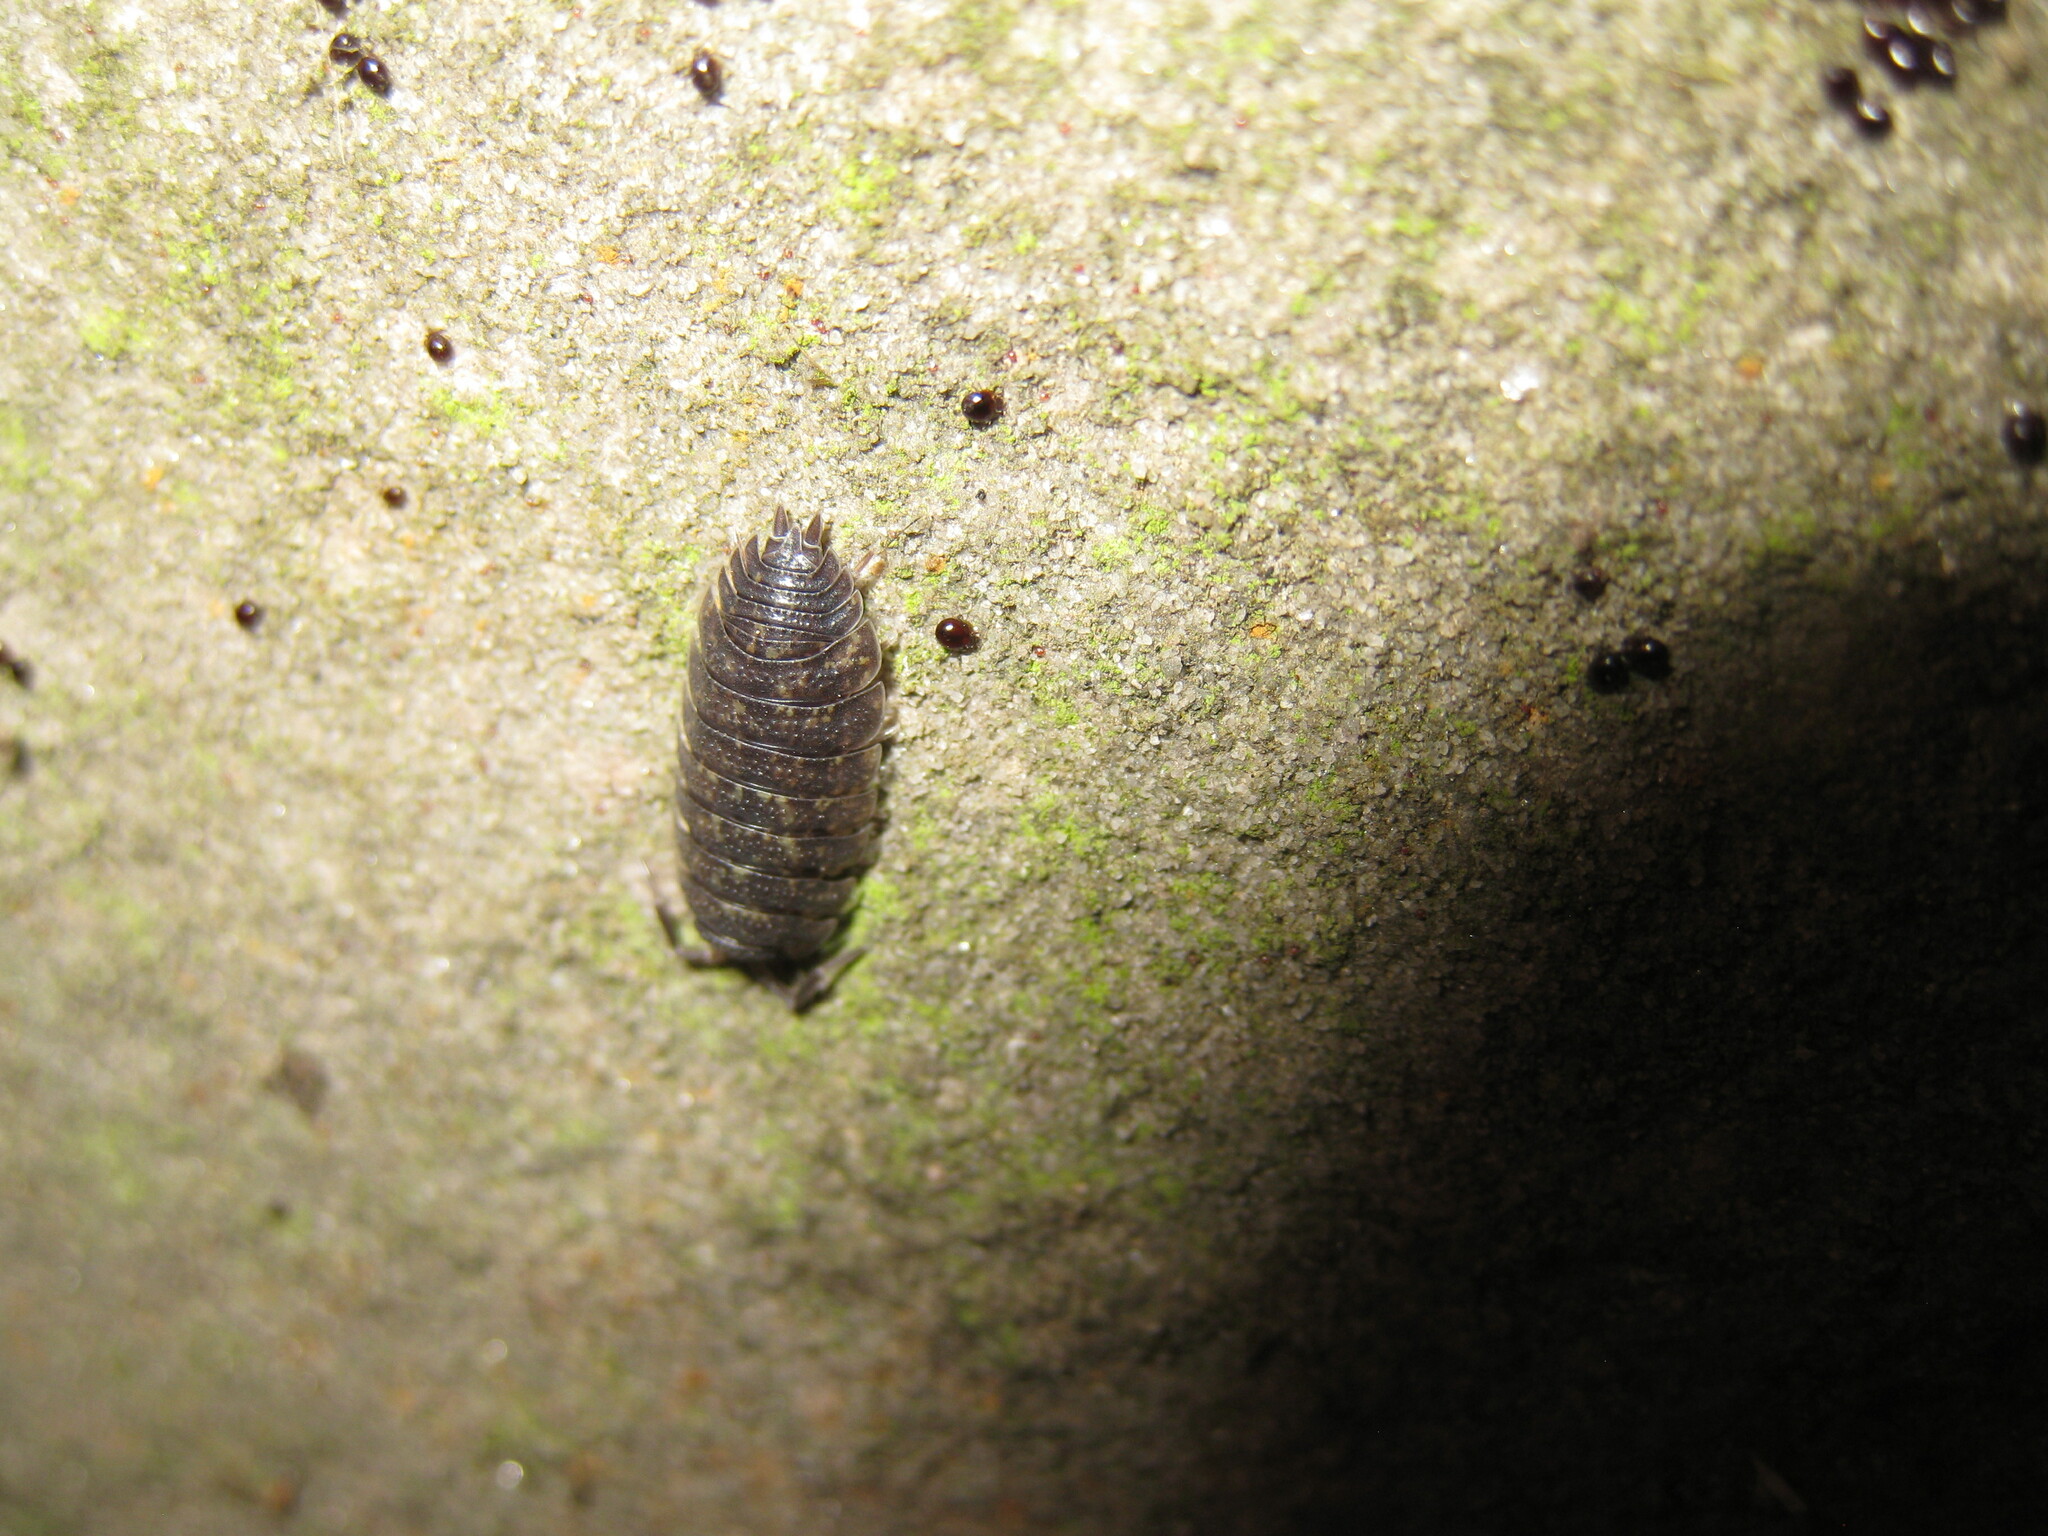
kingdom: Animalia
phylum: Arthropoda
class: Malacostraca
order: Isopoda
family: Porcellionidae
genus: Porcellio
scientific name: Porcellio scaber
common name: Common rough woodlouse
